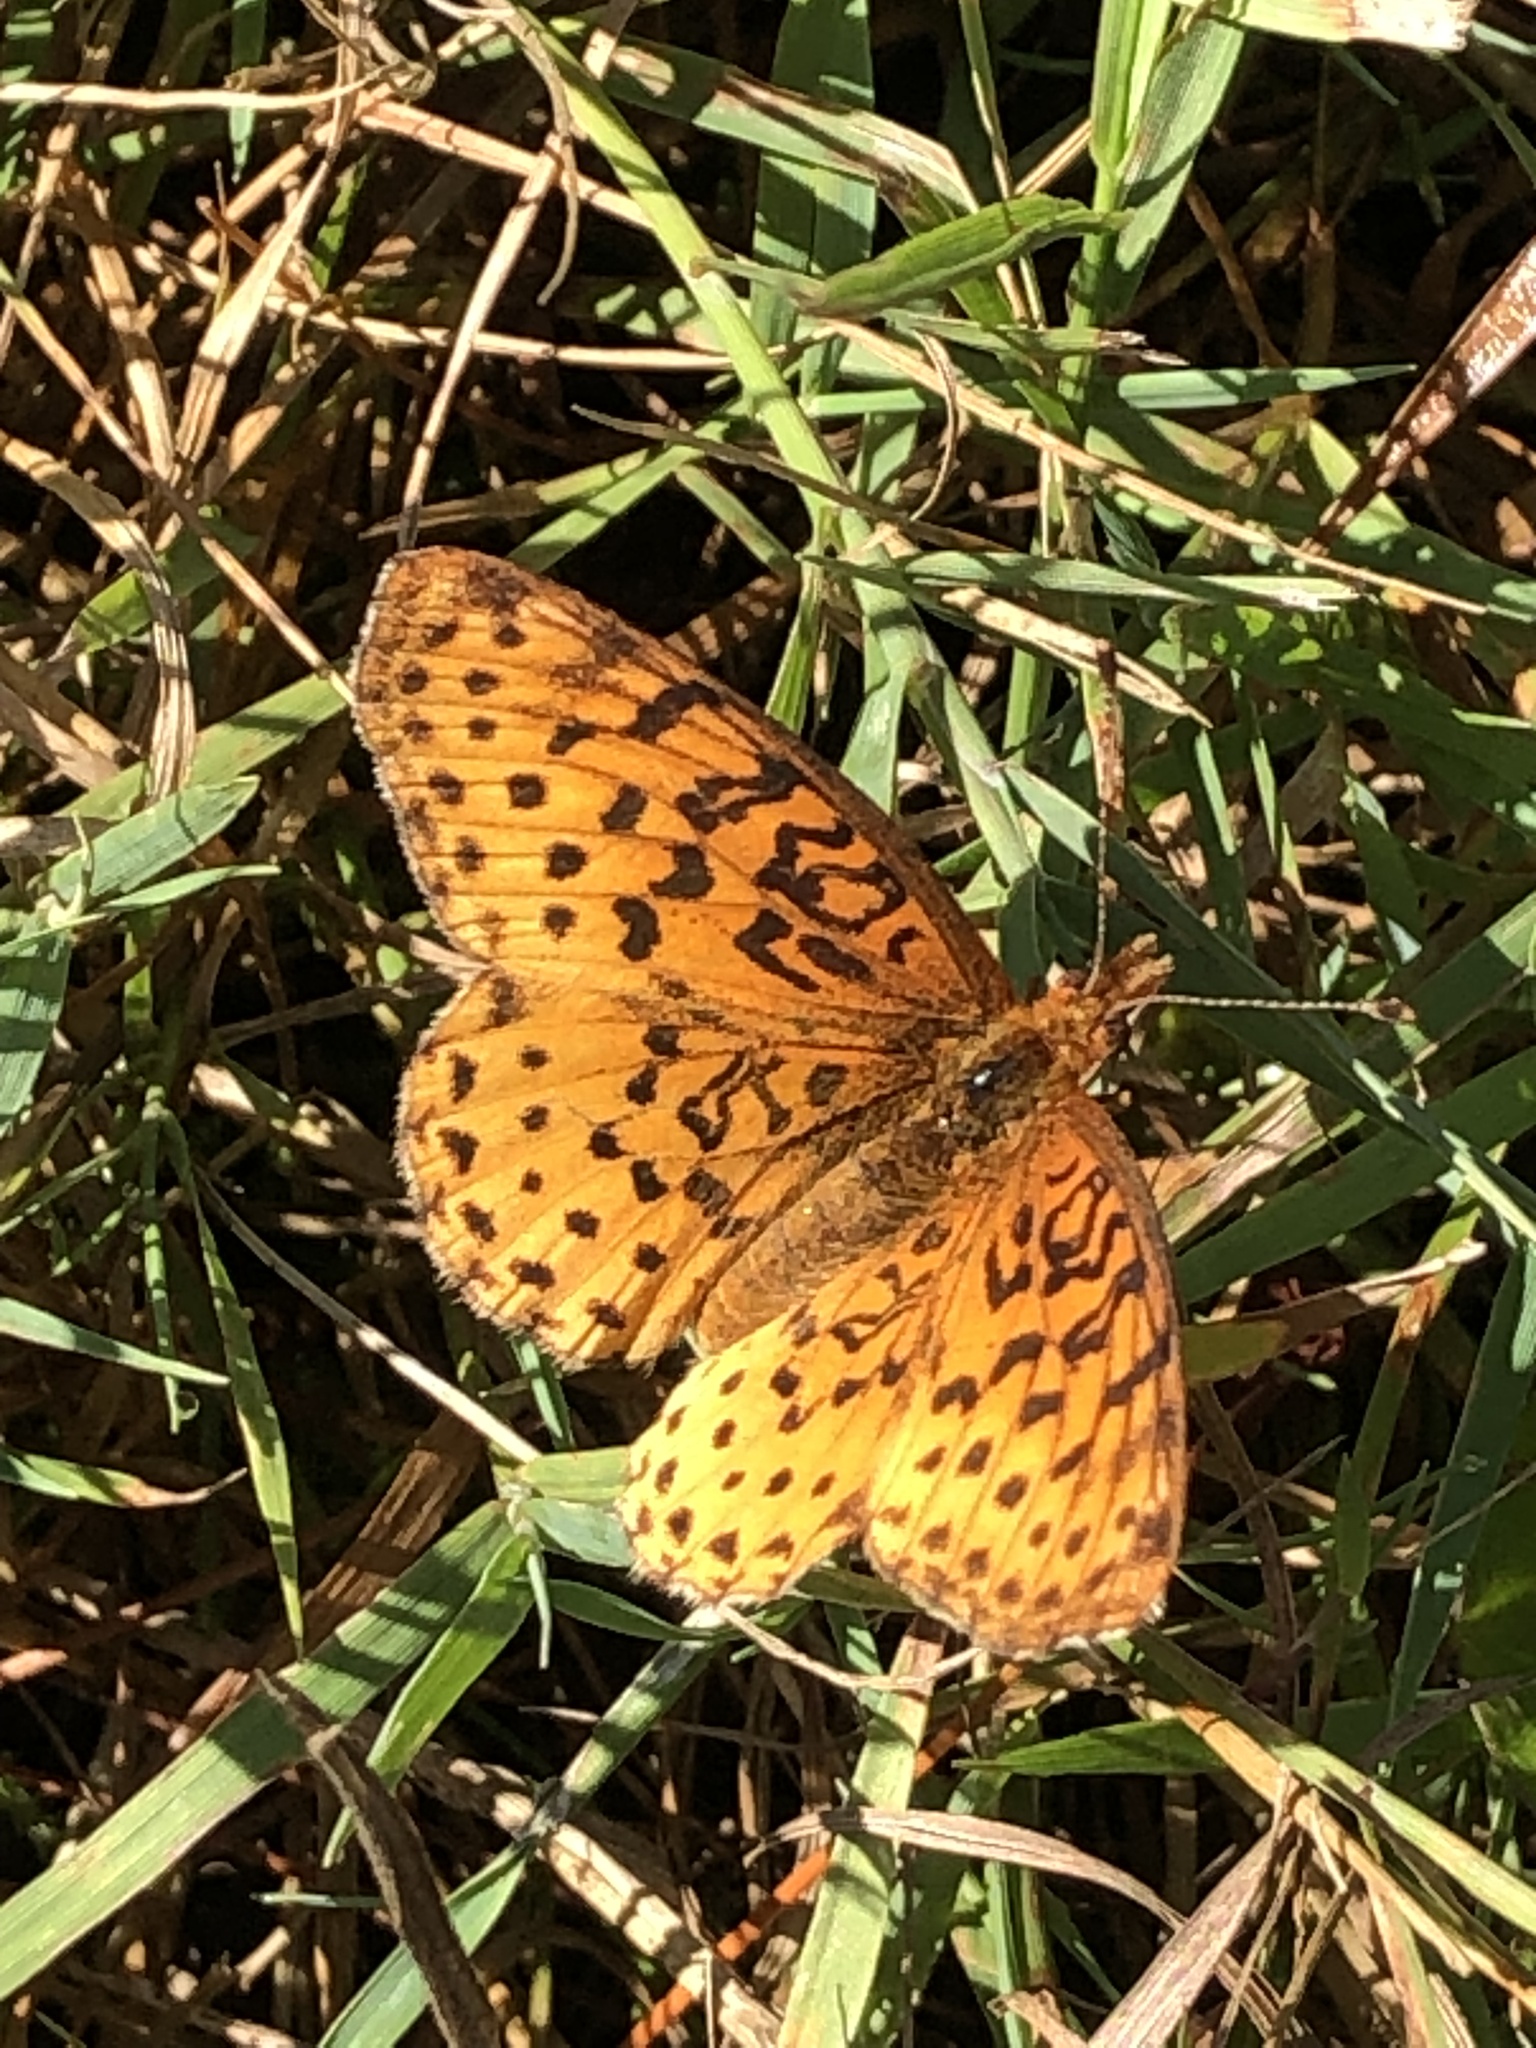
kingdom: Animalia
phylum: Arthropoda
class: Insecta
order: Lepidoptera
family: Nymphalidae
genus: Clossiana
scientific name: Clossiana toddi
